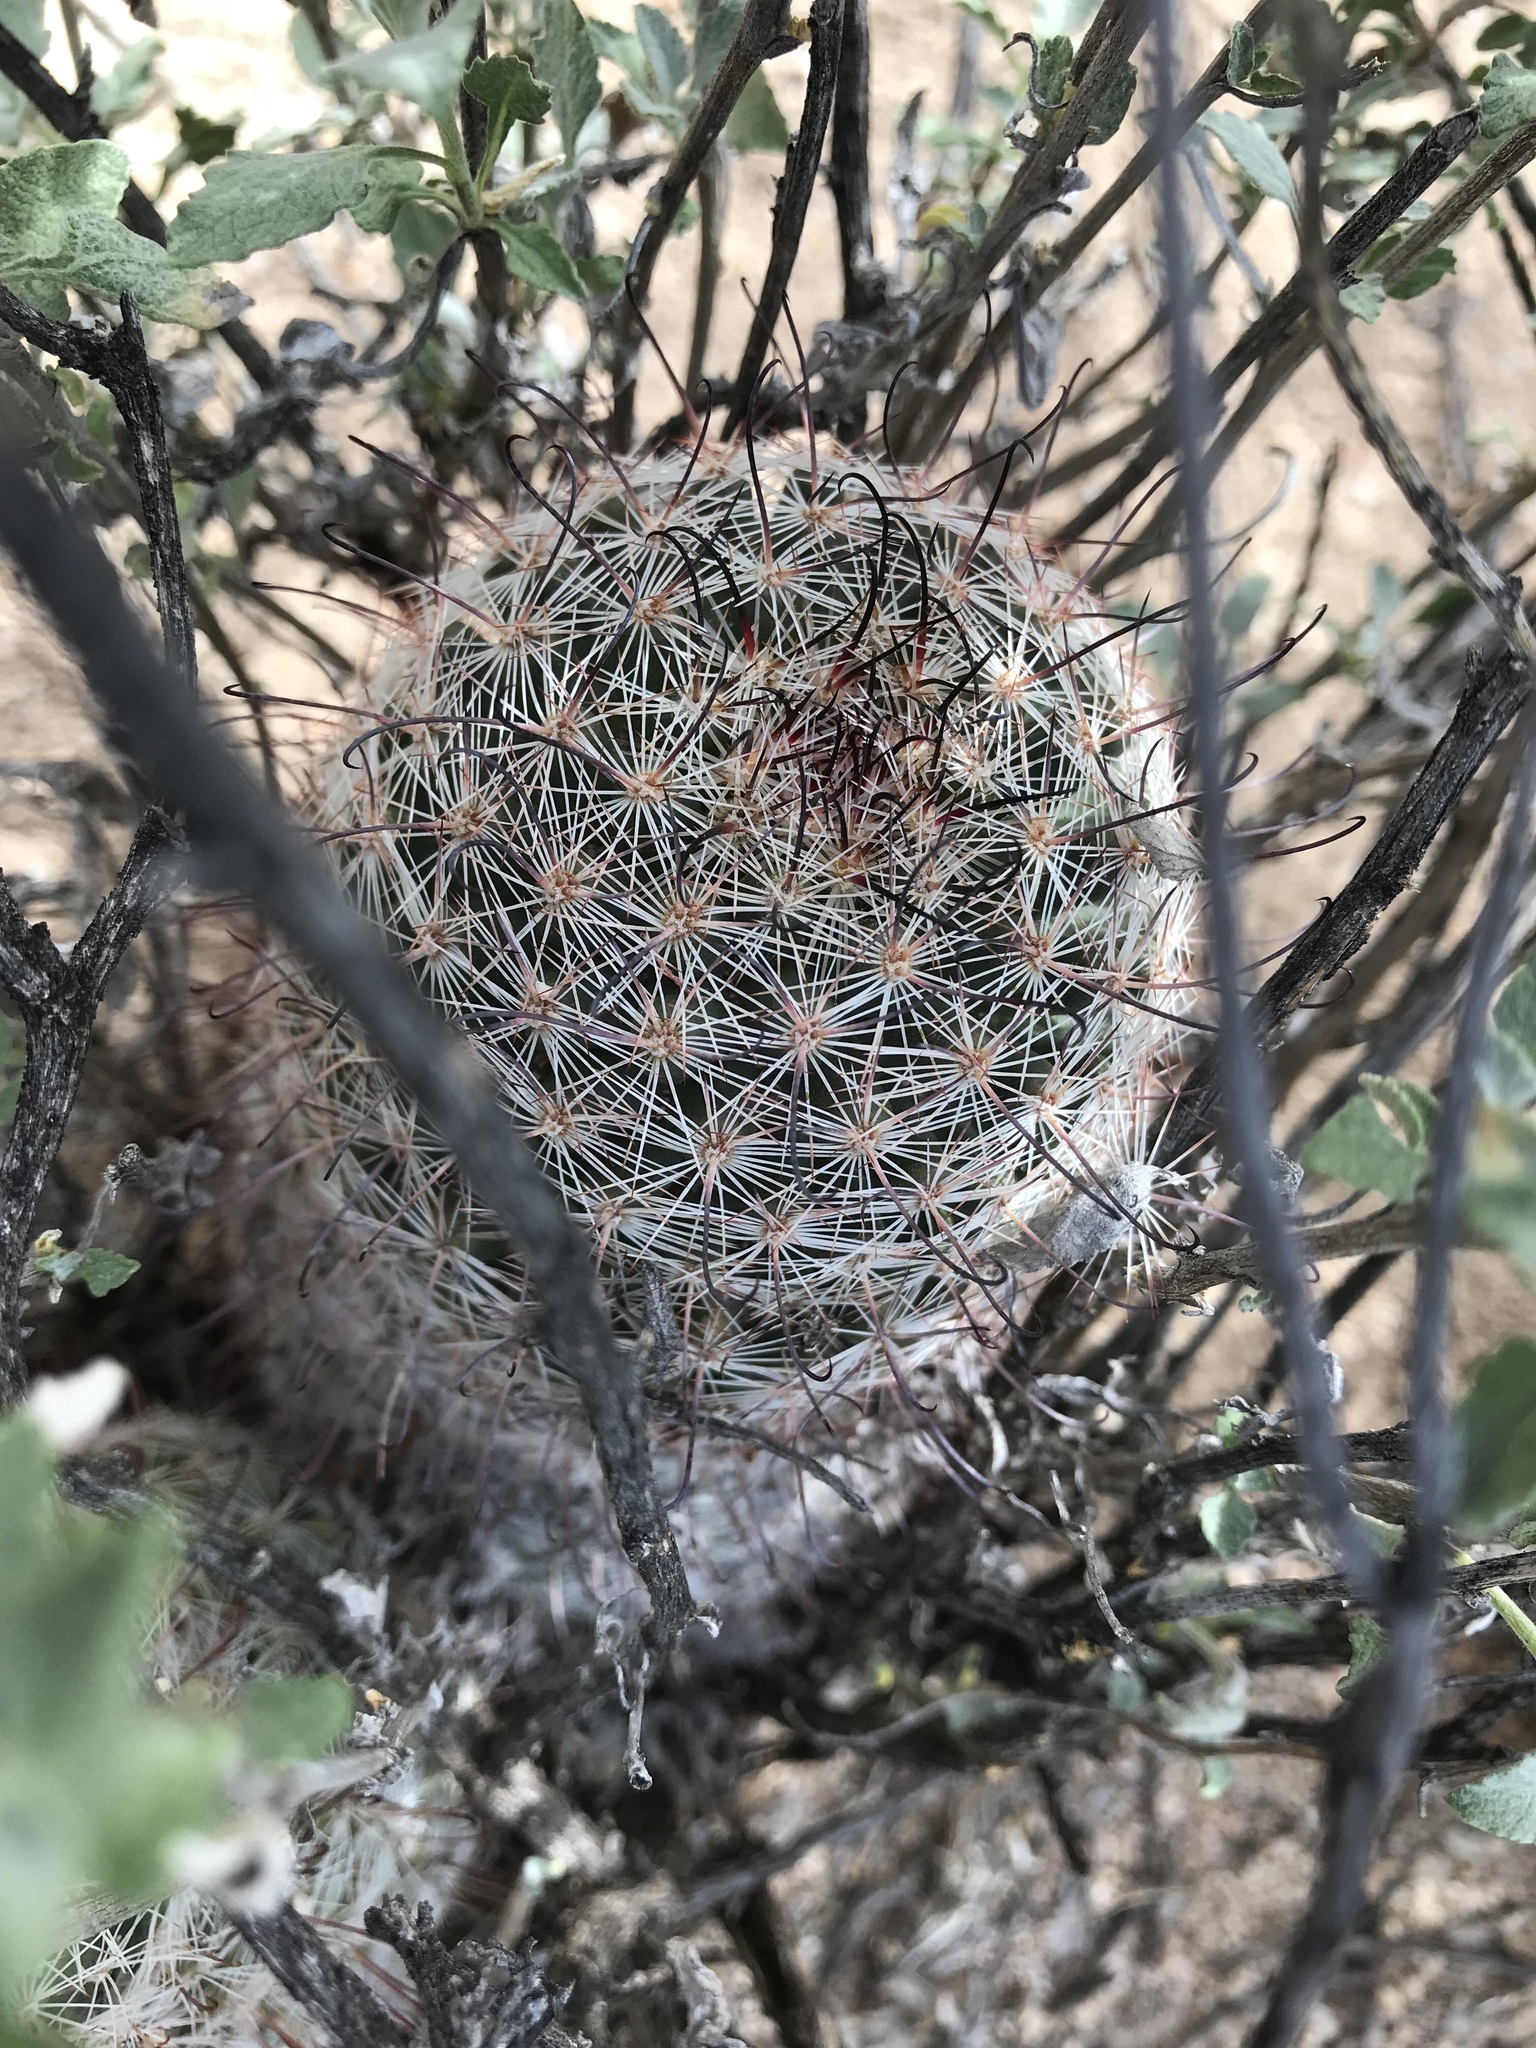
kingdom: Plantae
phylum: Tracheophyta
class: Magnoliopsida
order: Caryophyllales
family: Cactaceae
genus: Cochemiea
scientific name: Cochemiea grahamii
